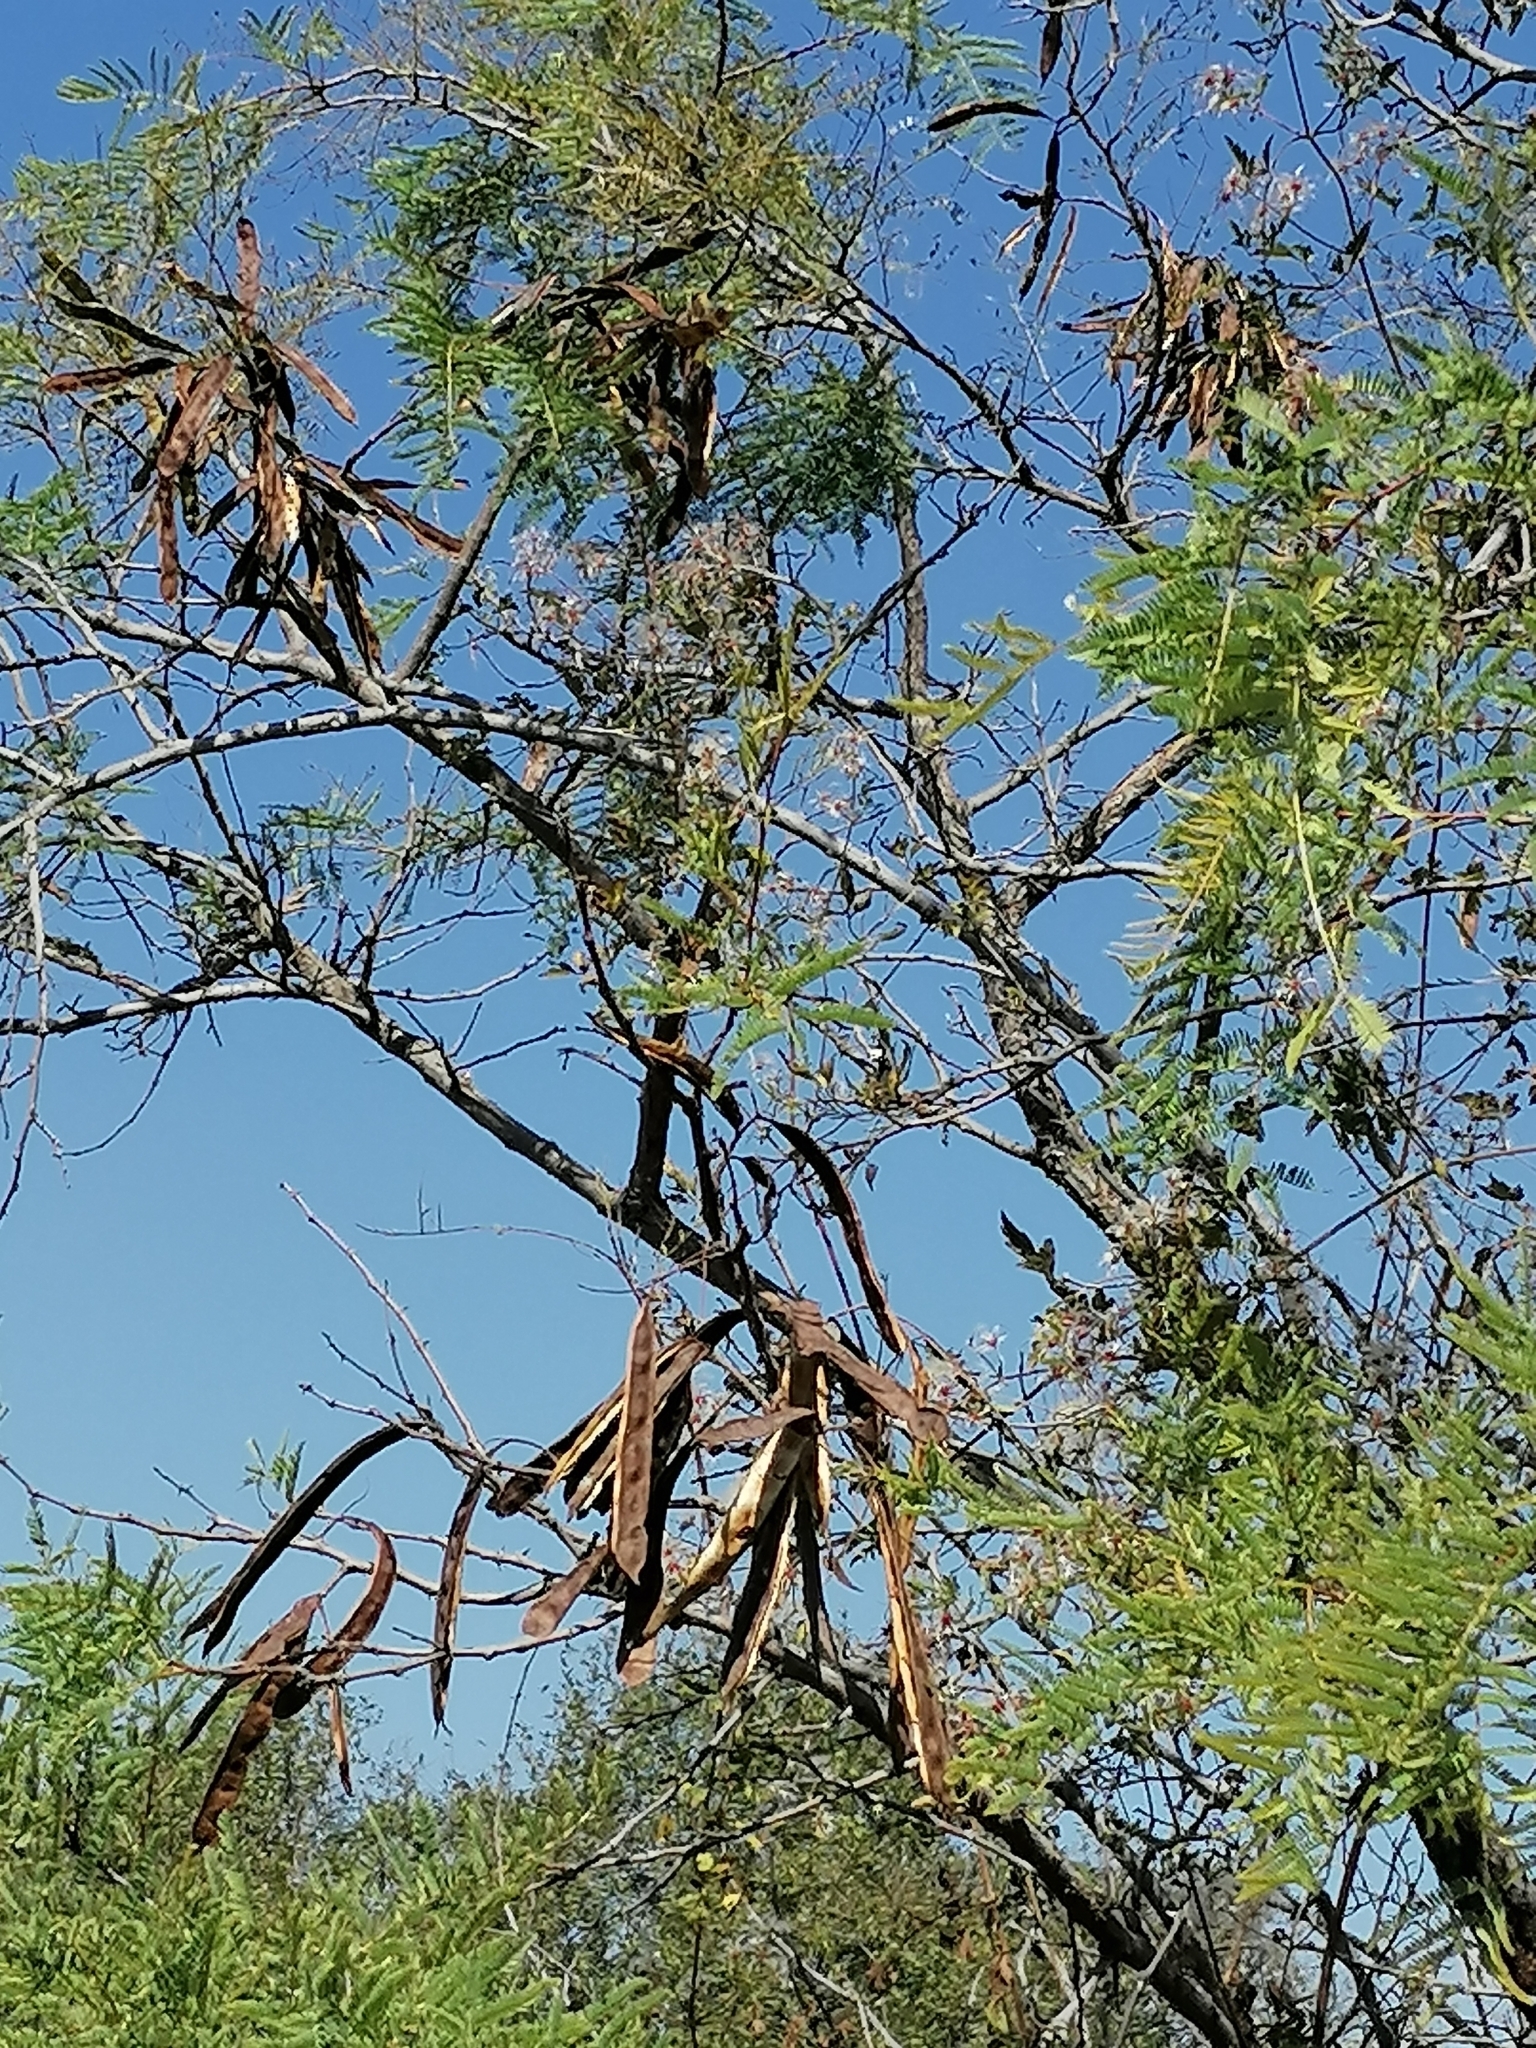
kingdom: Plantae
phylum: Tracheophyta
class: Magnoliopsida
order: Fabales
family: Fabaceae
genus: Senegalia
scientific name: Senegalia caffra
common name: Cat thorn
